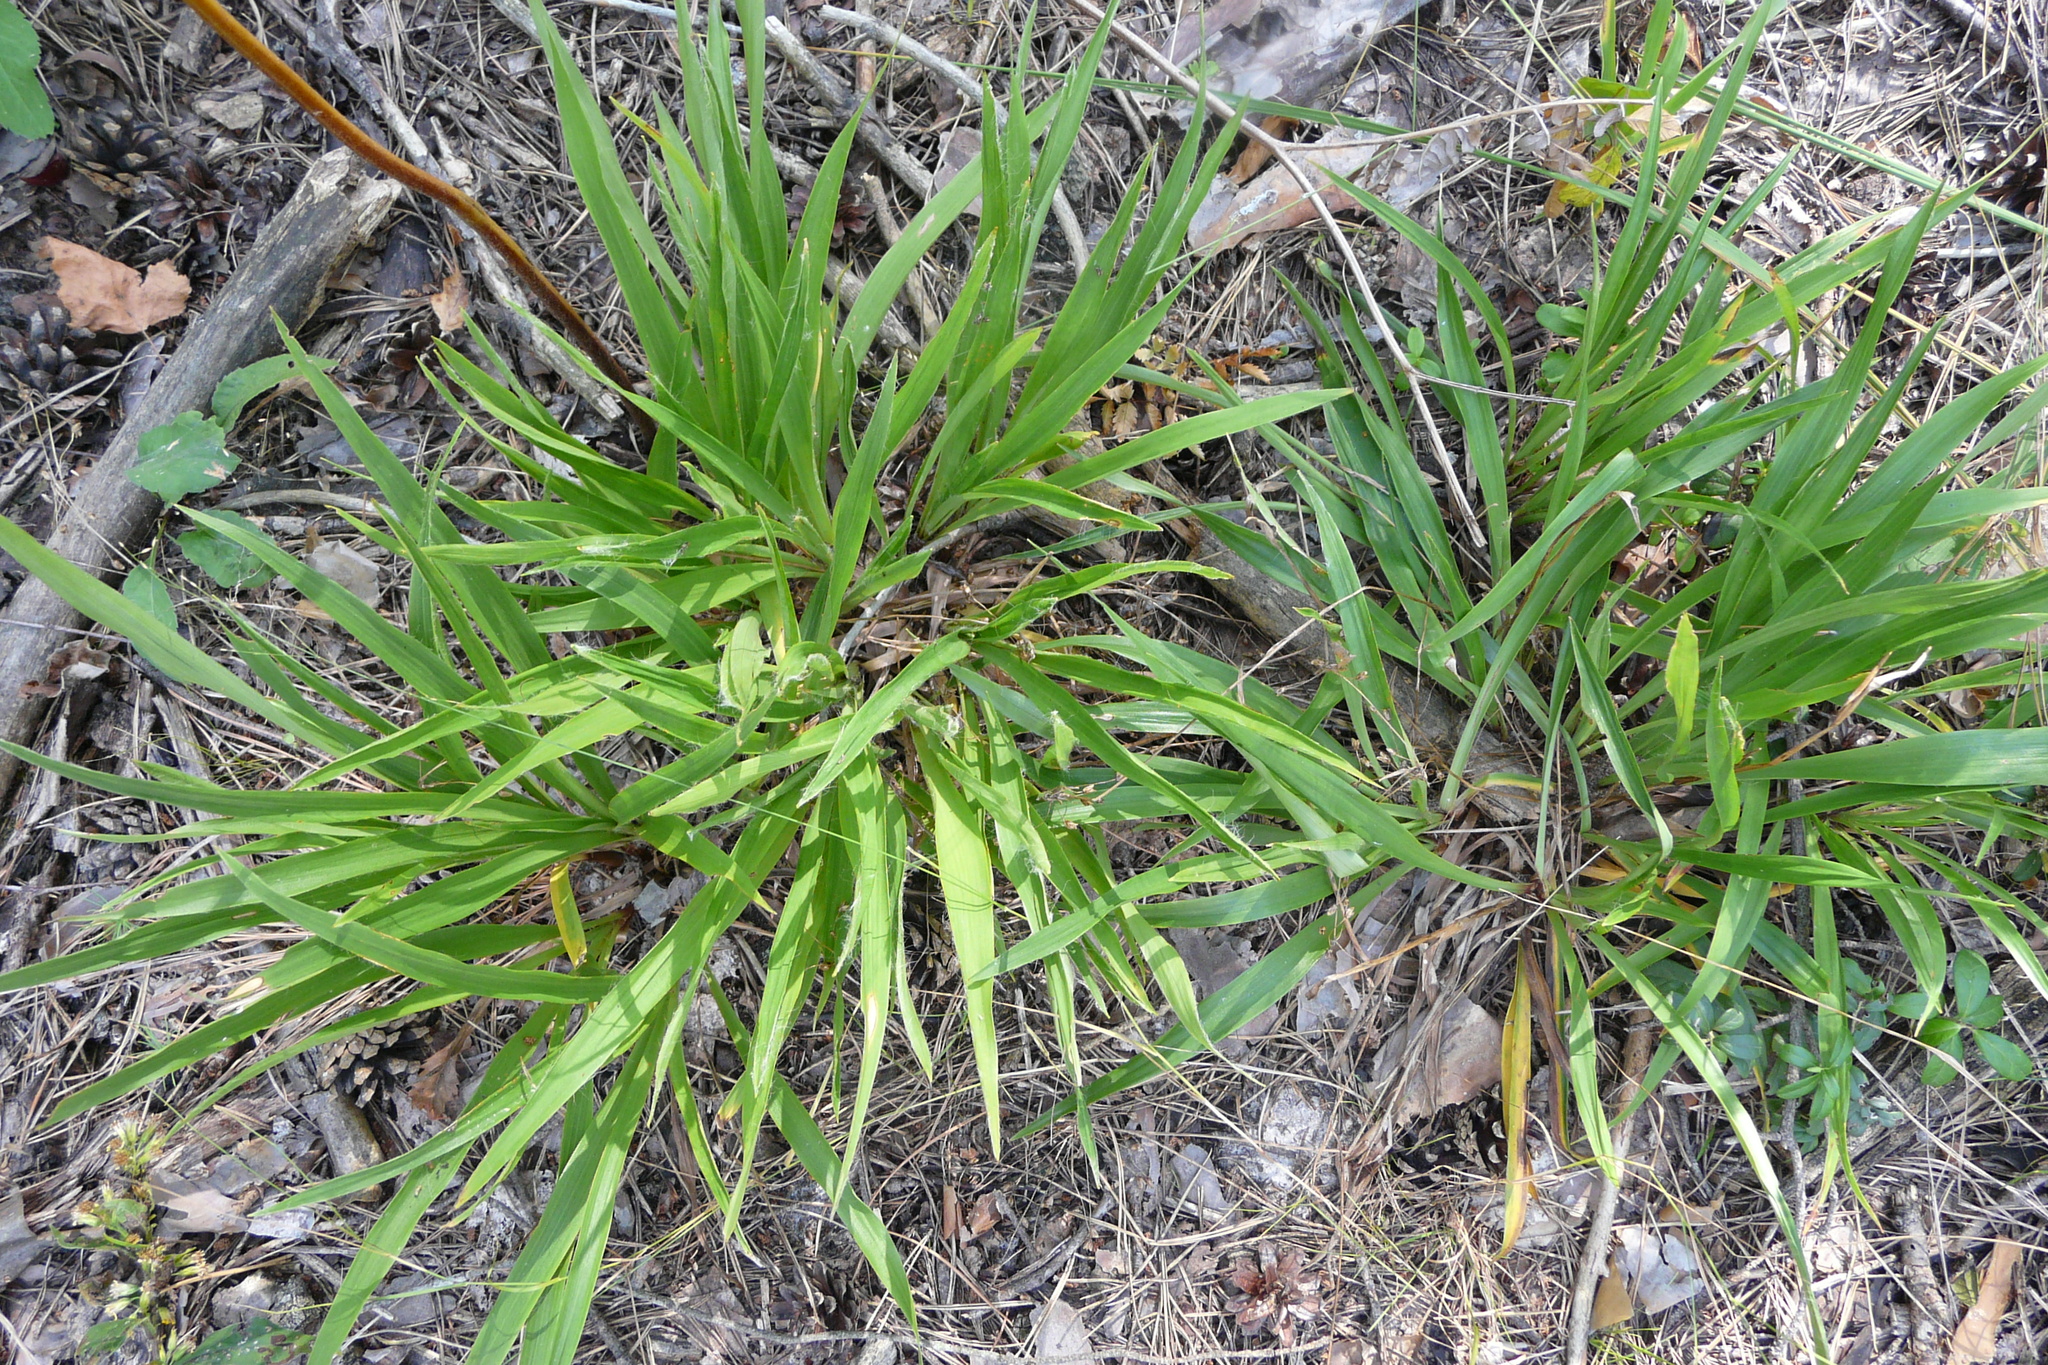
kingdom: Plantae
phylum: Tracheophyta
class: Liliopsida
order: Poales
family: Juncaceae
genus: Luzula
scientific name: Luzula pilosa
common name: Hairy wood-rush
